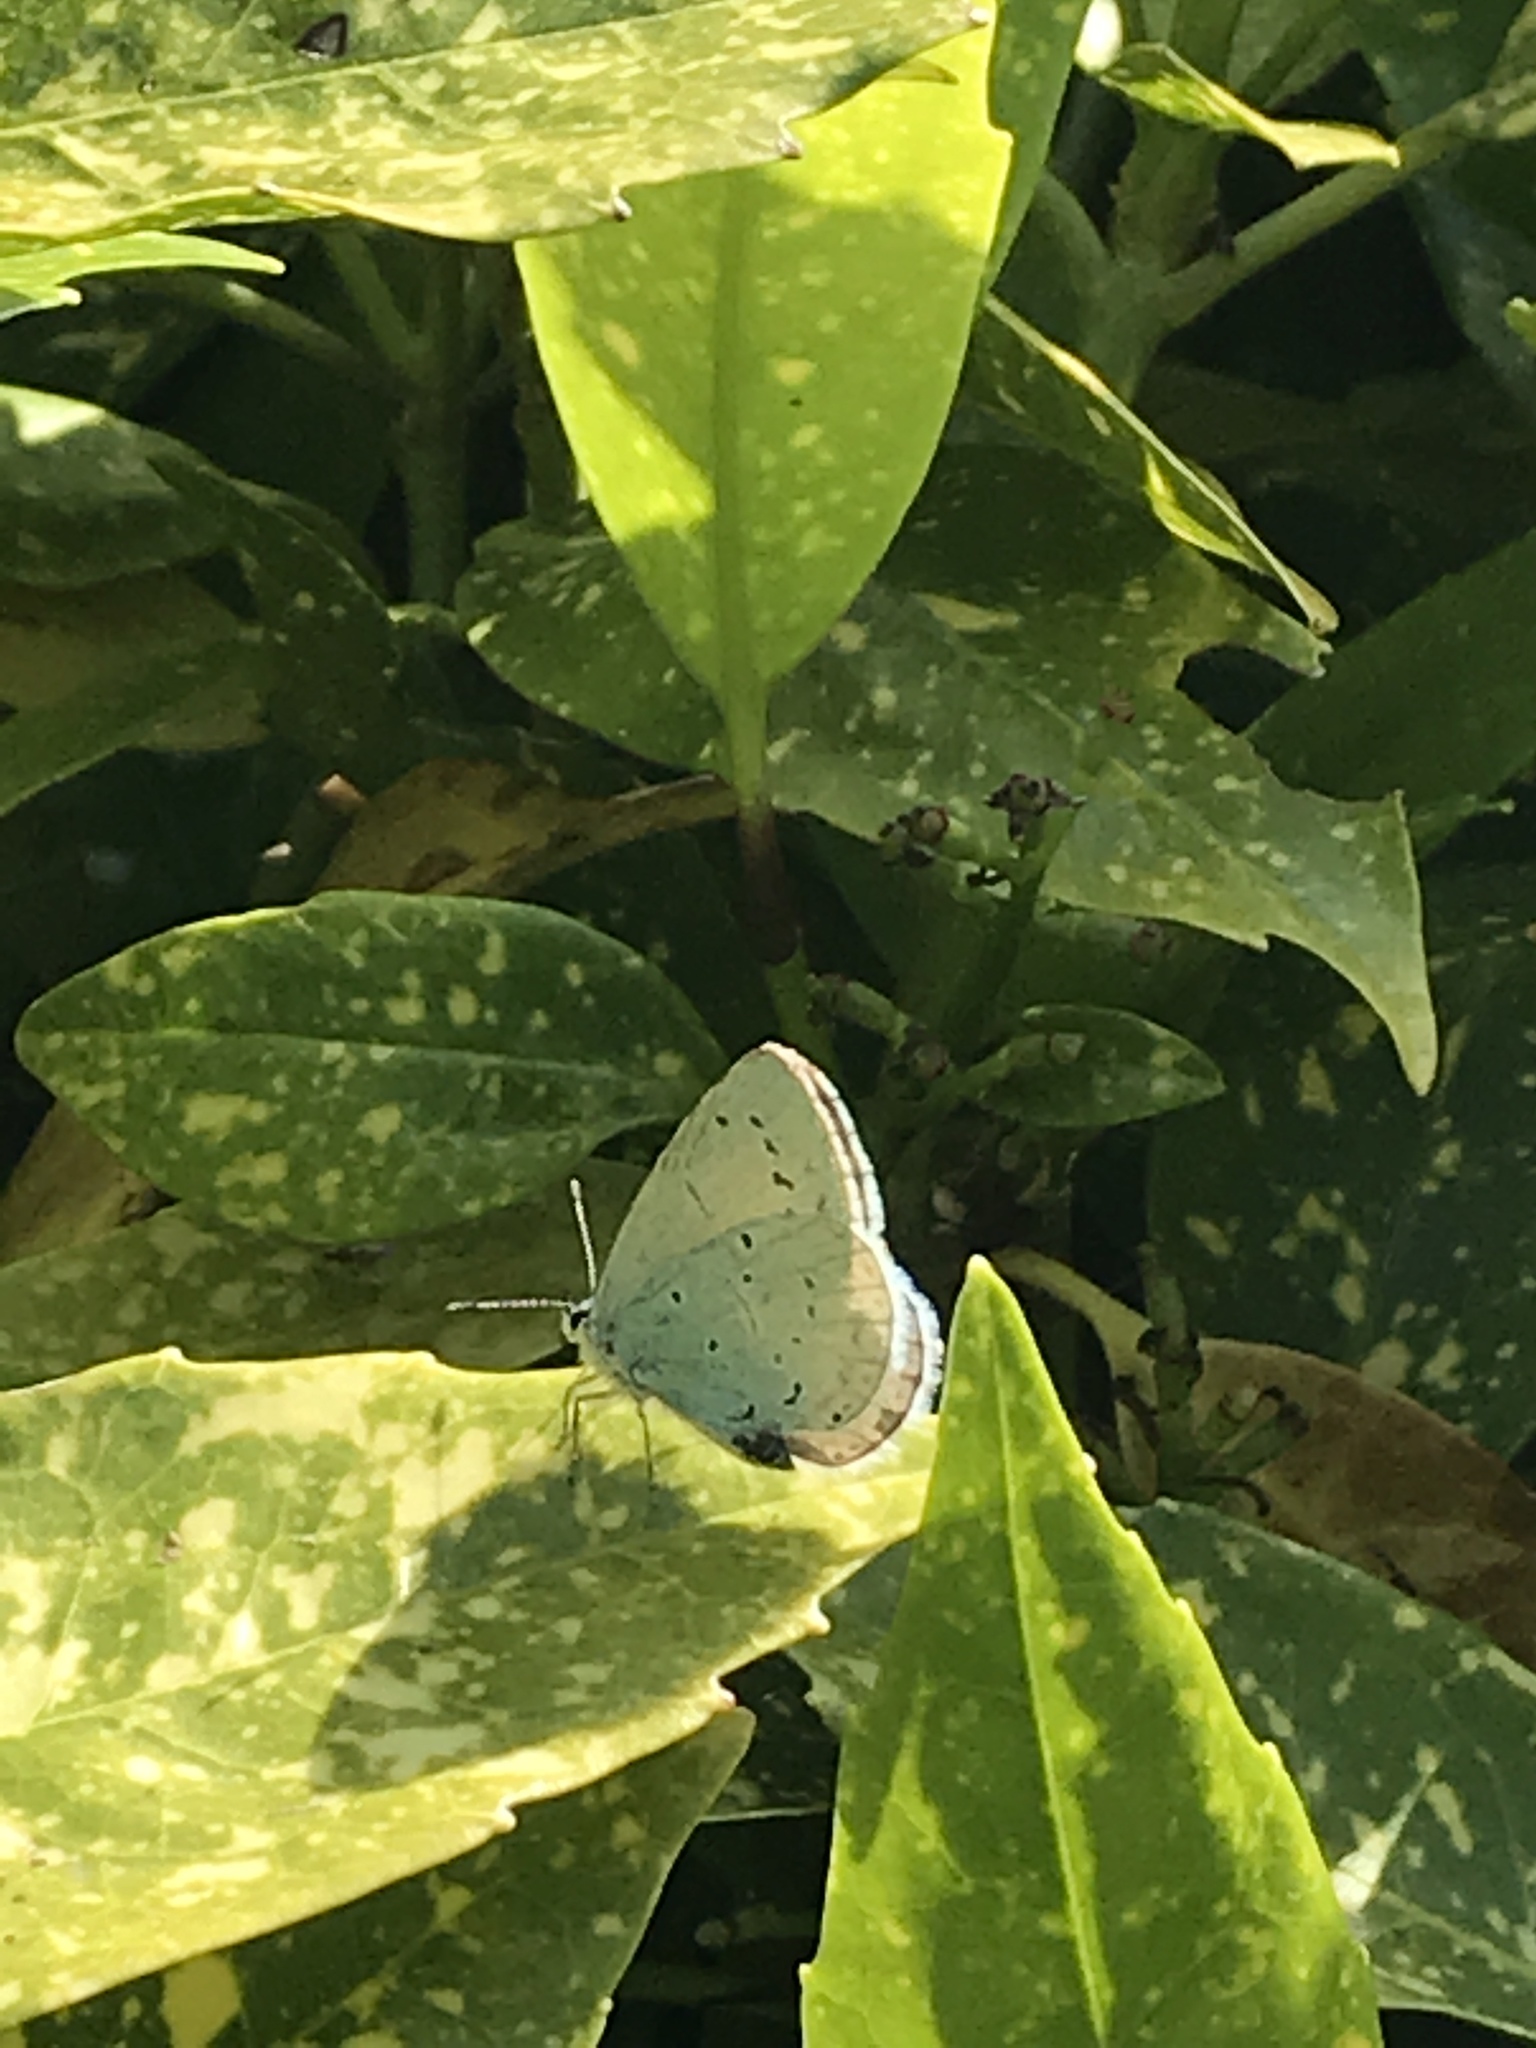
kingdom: Animalia
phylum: Arthropoda
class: Insecta
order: Lepidoptera
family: Lycaenidae
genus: Celastrina
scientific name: Celastrina argiolus
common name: Holly blue
